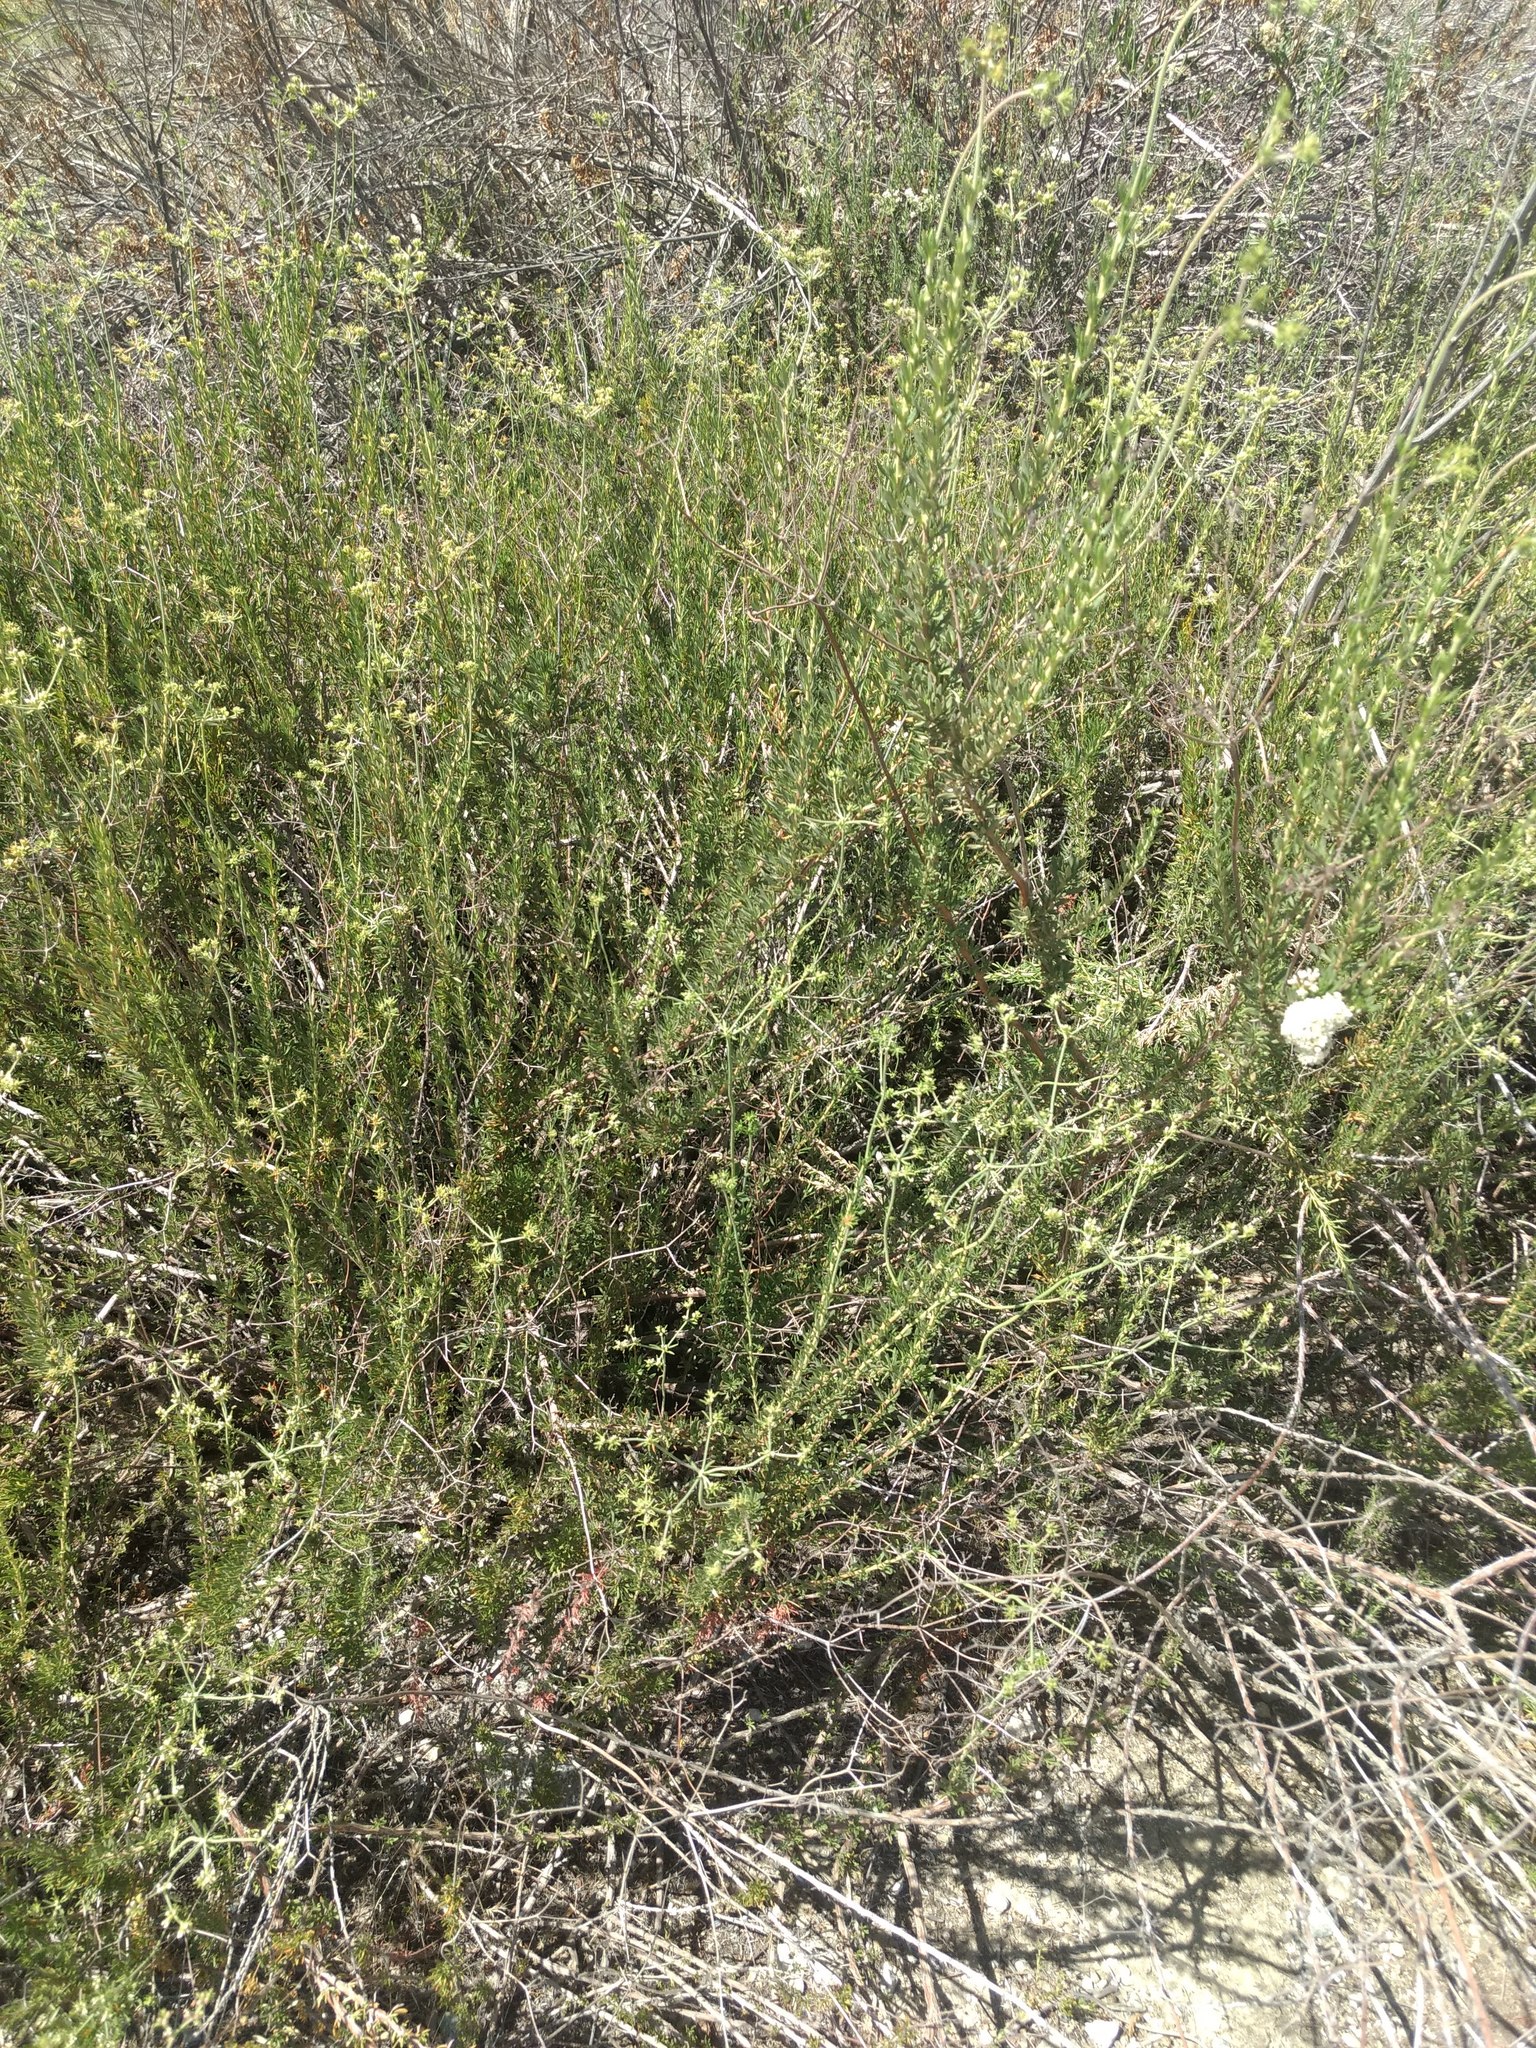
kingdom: Plantae
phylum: Tracheophyta
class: Magnoliopsida
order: Caryophyllales
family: Polygonaceae
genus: Eriogonum
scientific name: Eriogonum fasciculatum
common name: California wild buckwheat
